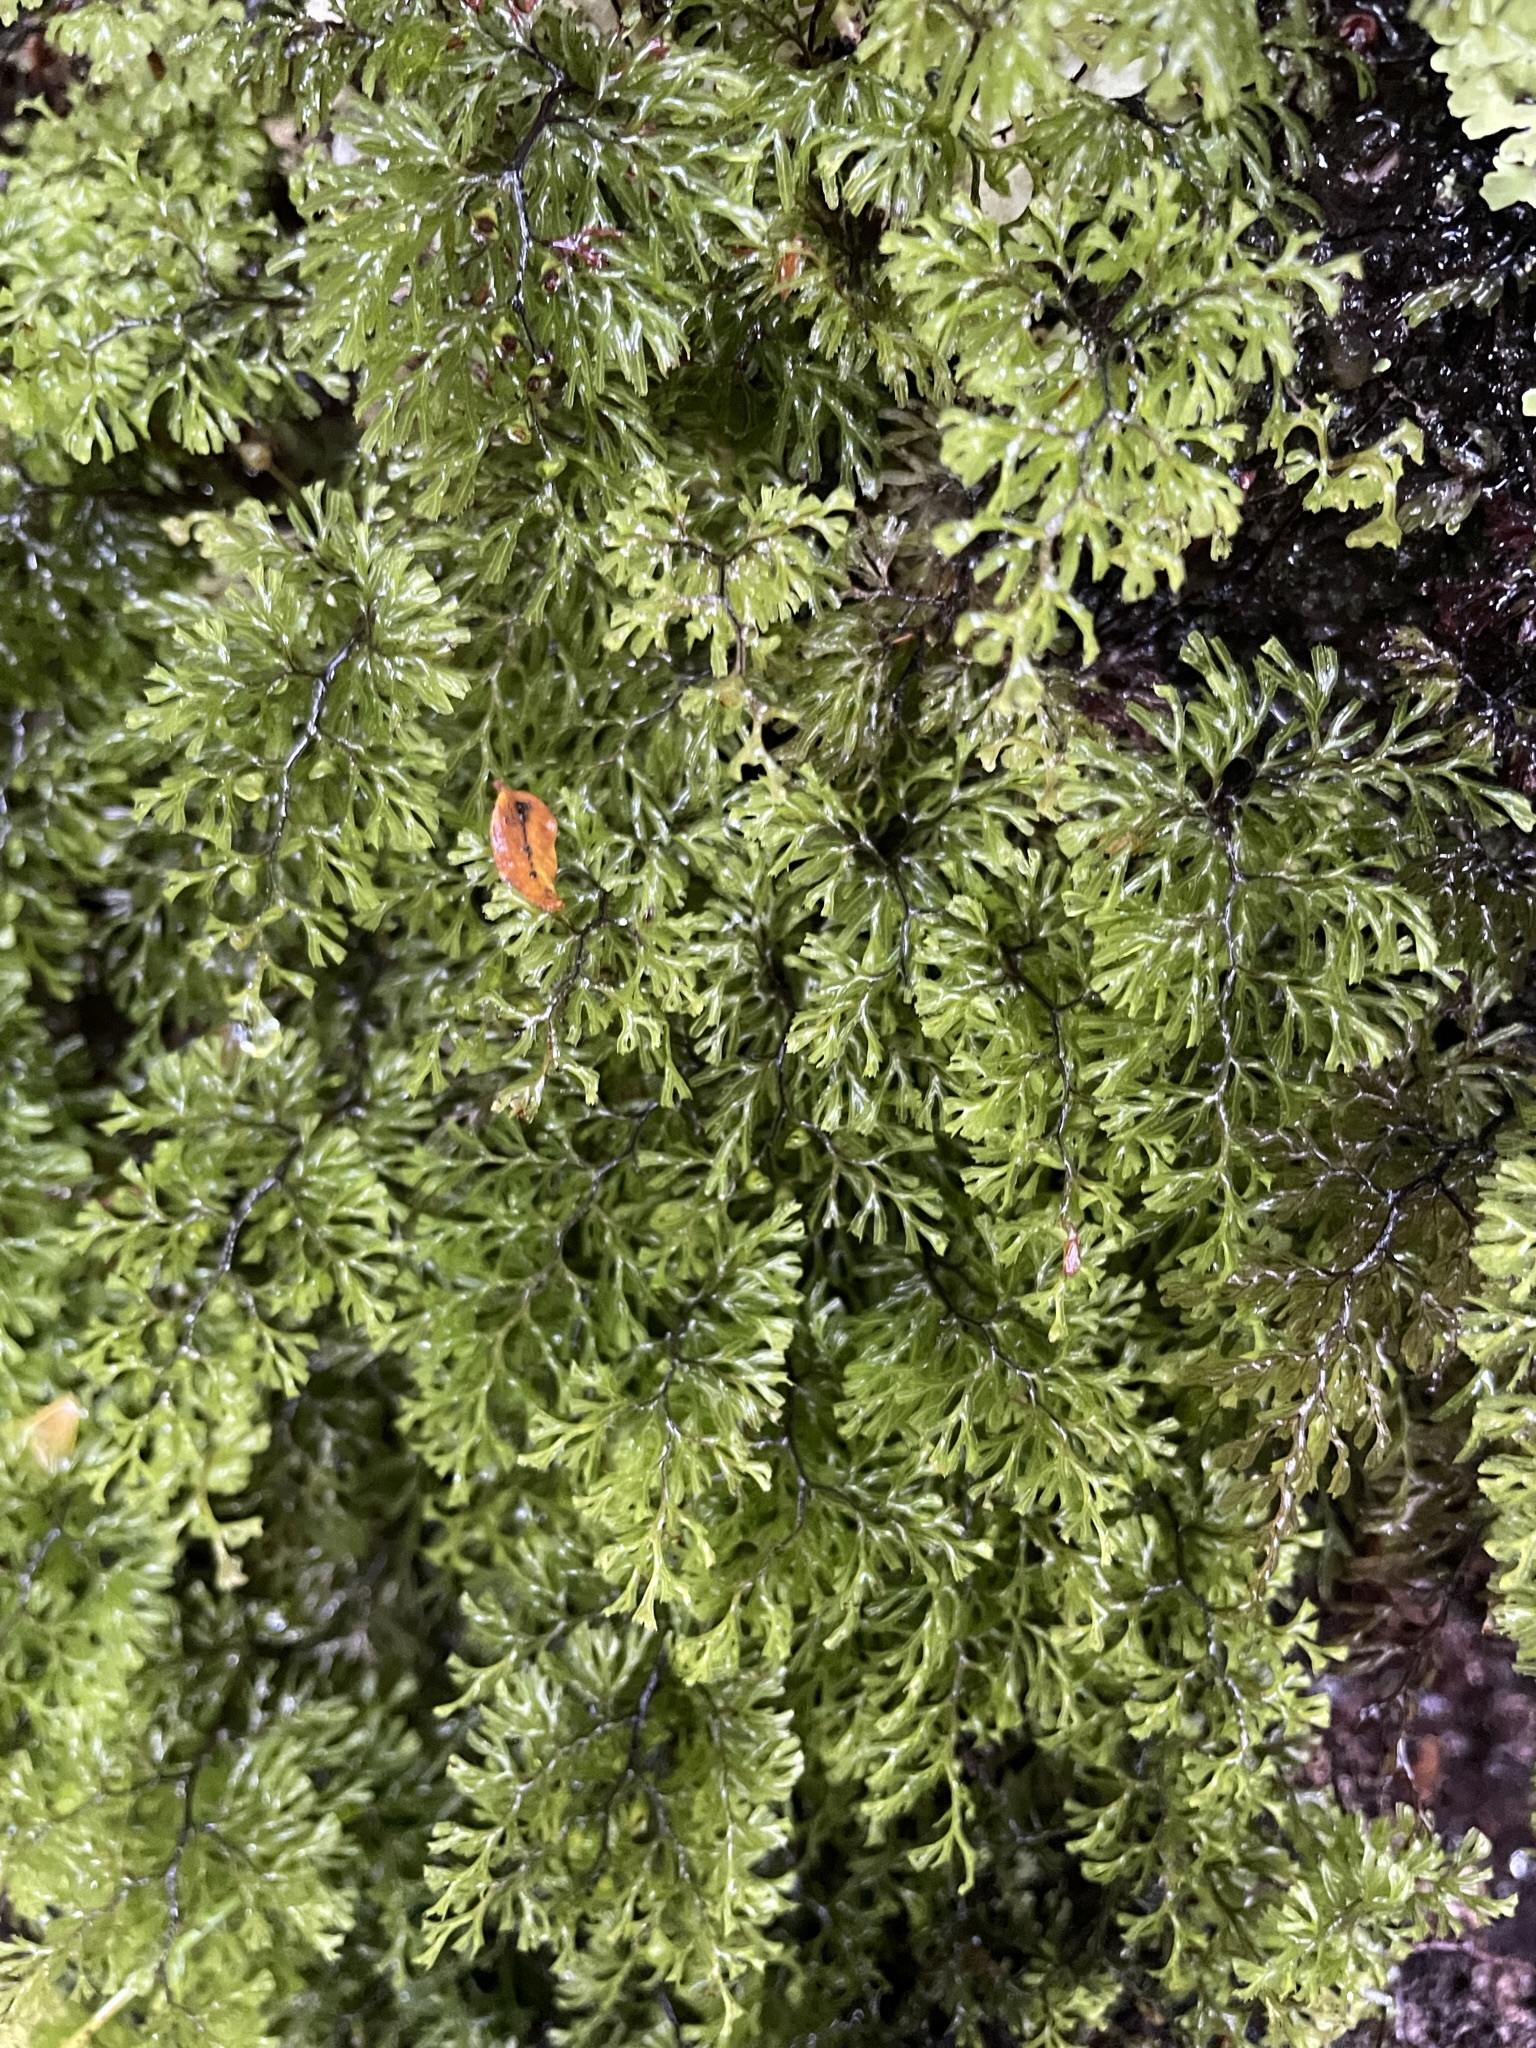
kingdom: Plantae
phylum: Tracheophyta
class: Polypodiopsida
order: Hymenophyllales
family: Hymenophyllaceae
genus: Hymenophyllum
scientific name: Hymenophyllum multifidum
